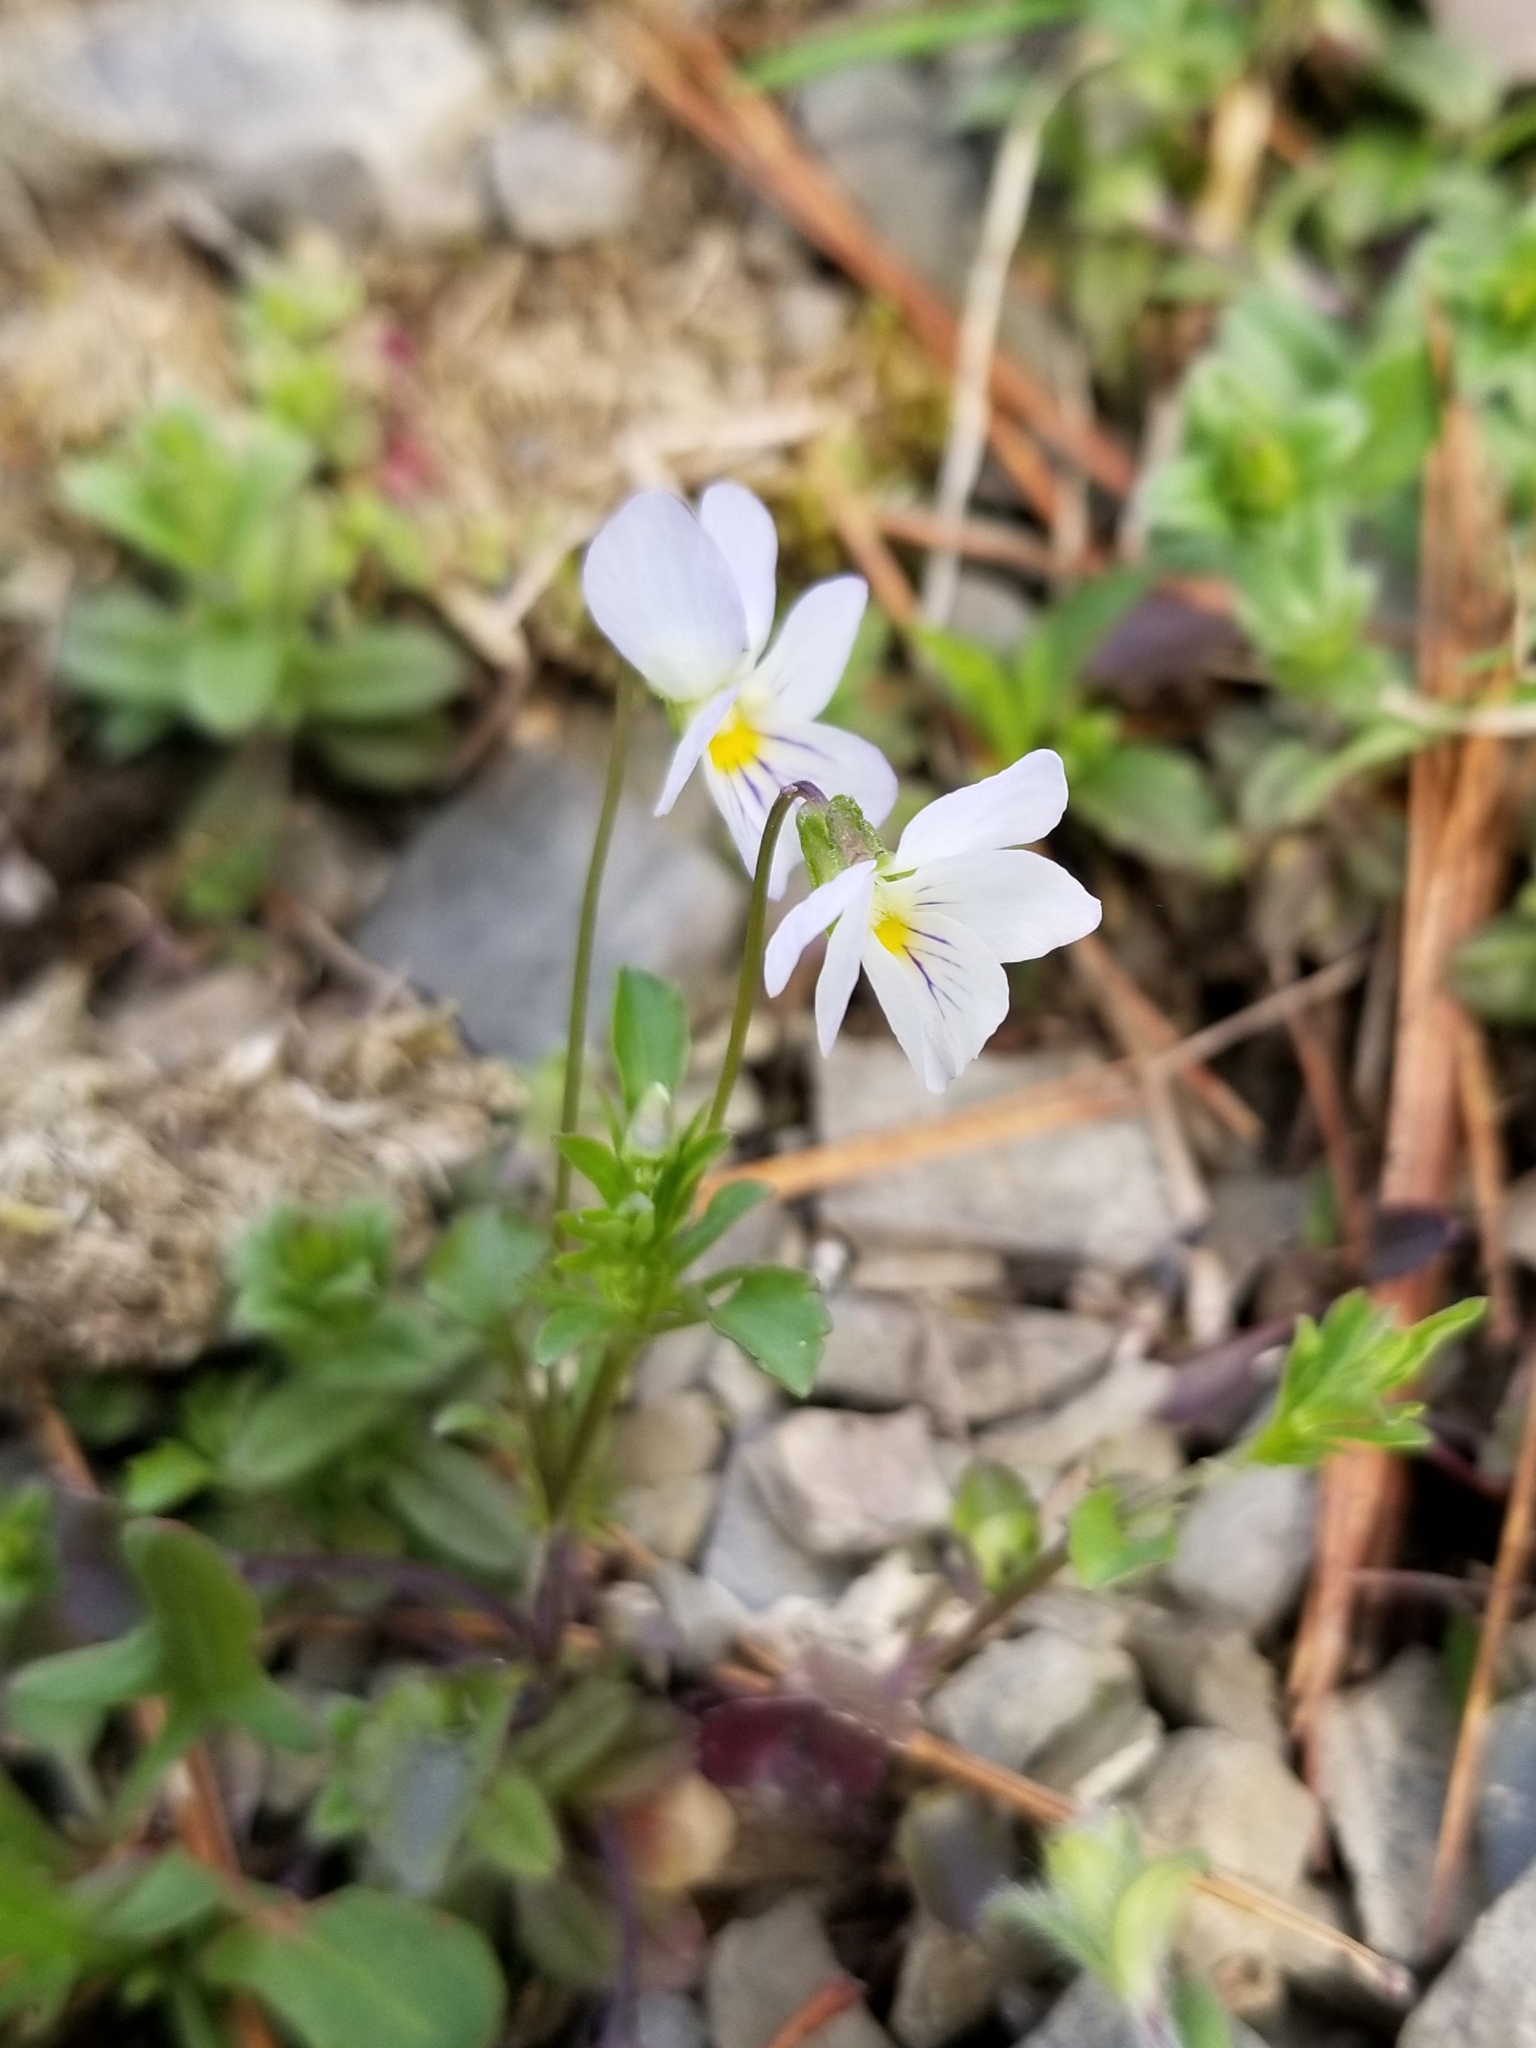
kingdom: Plantae
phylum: Tracheophyta
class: Magnoliopsida
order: Malpighiales
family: Violaceae
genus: Viola
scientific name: Viola rafinesquei
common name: American field pansy
